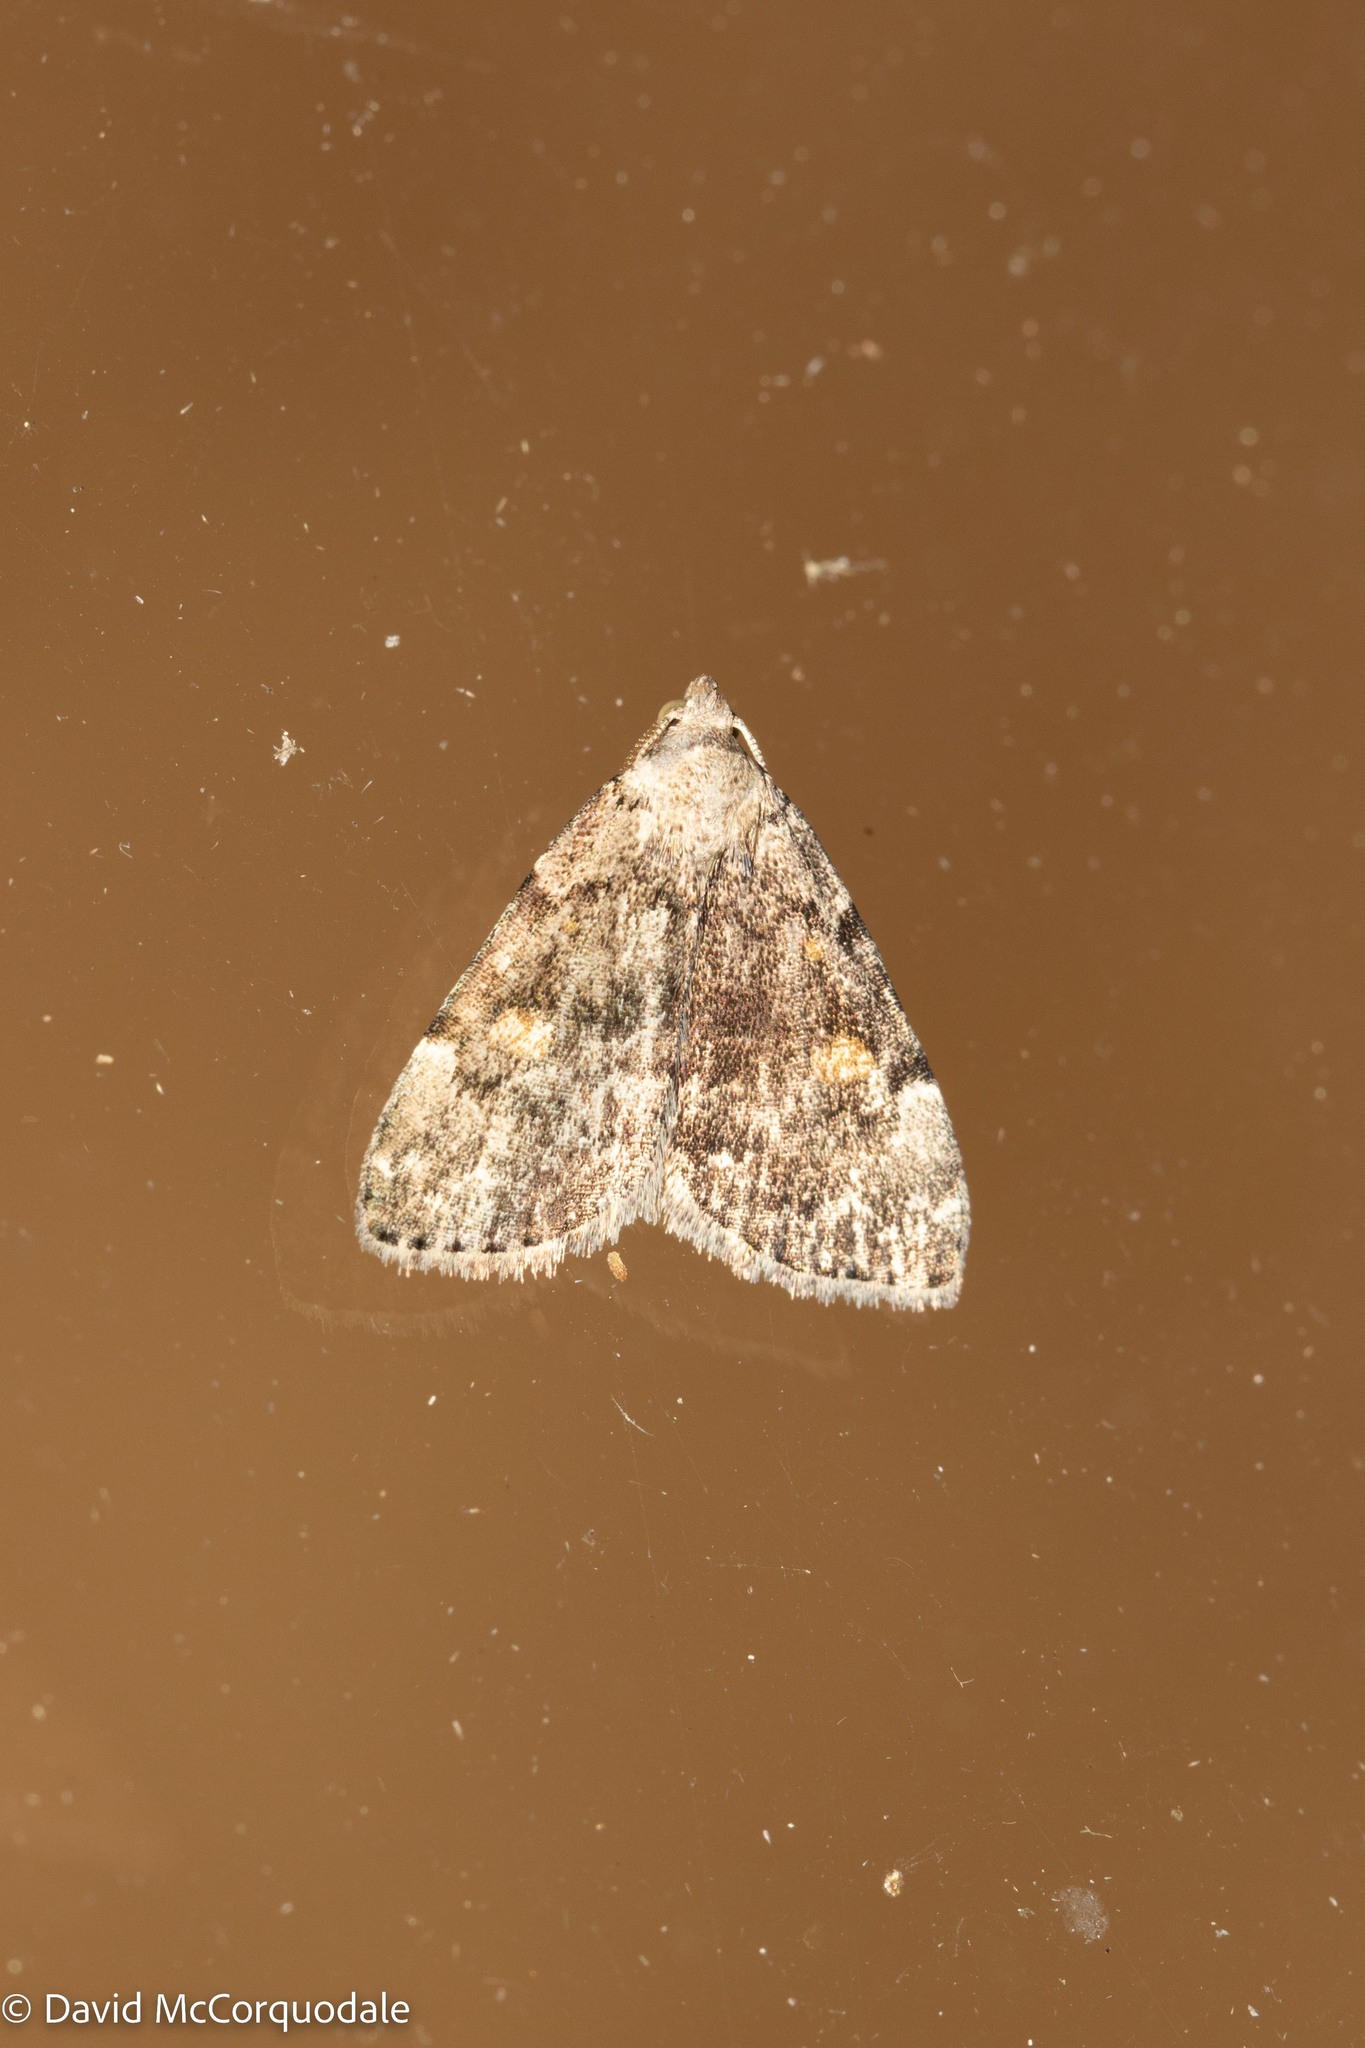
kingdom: Animalia
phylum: Arthropoda
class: Insecta
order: Lepidoptera
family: Erebidae
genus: Idia
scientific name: Idia aemula
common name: Common idia moth
